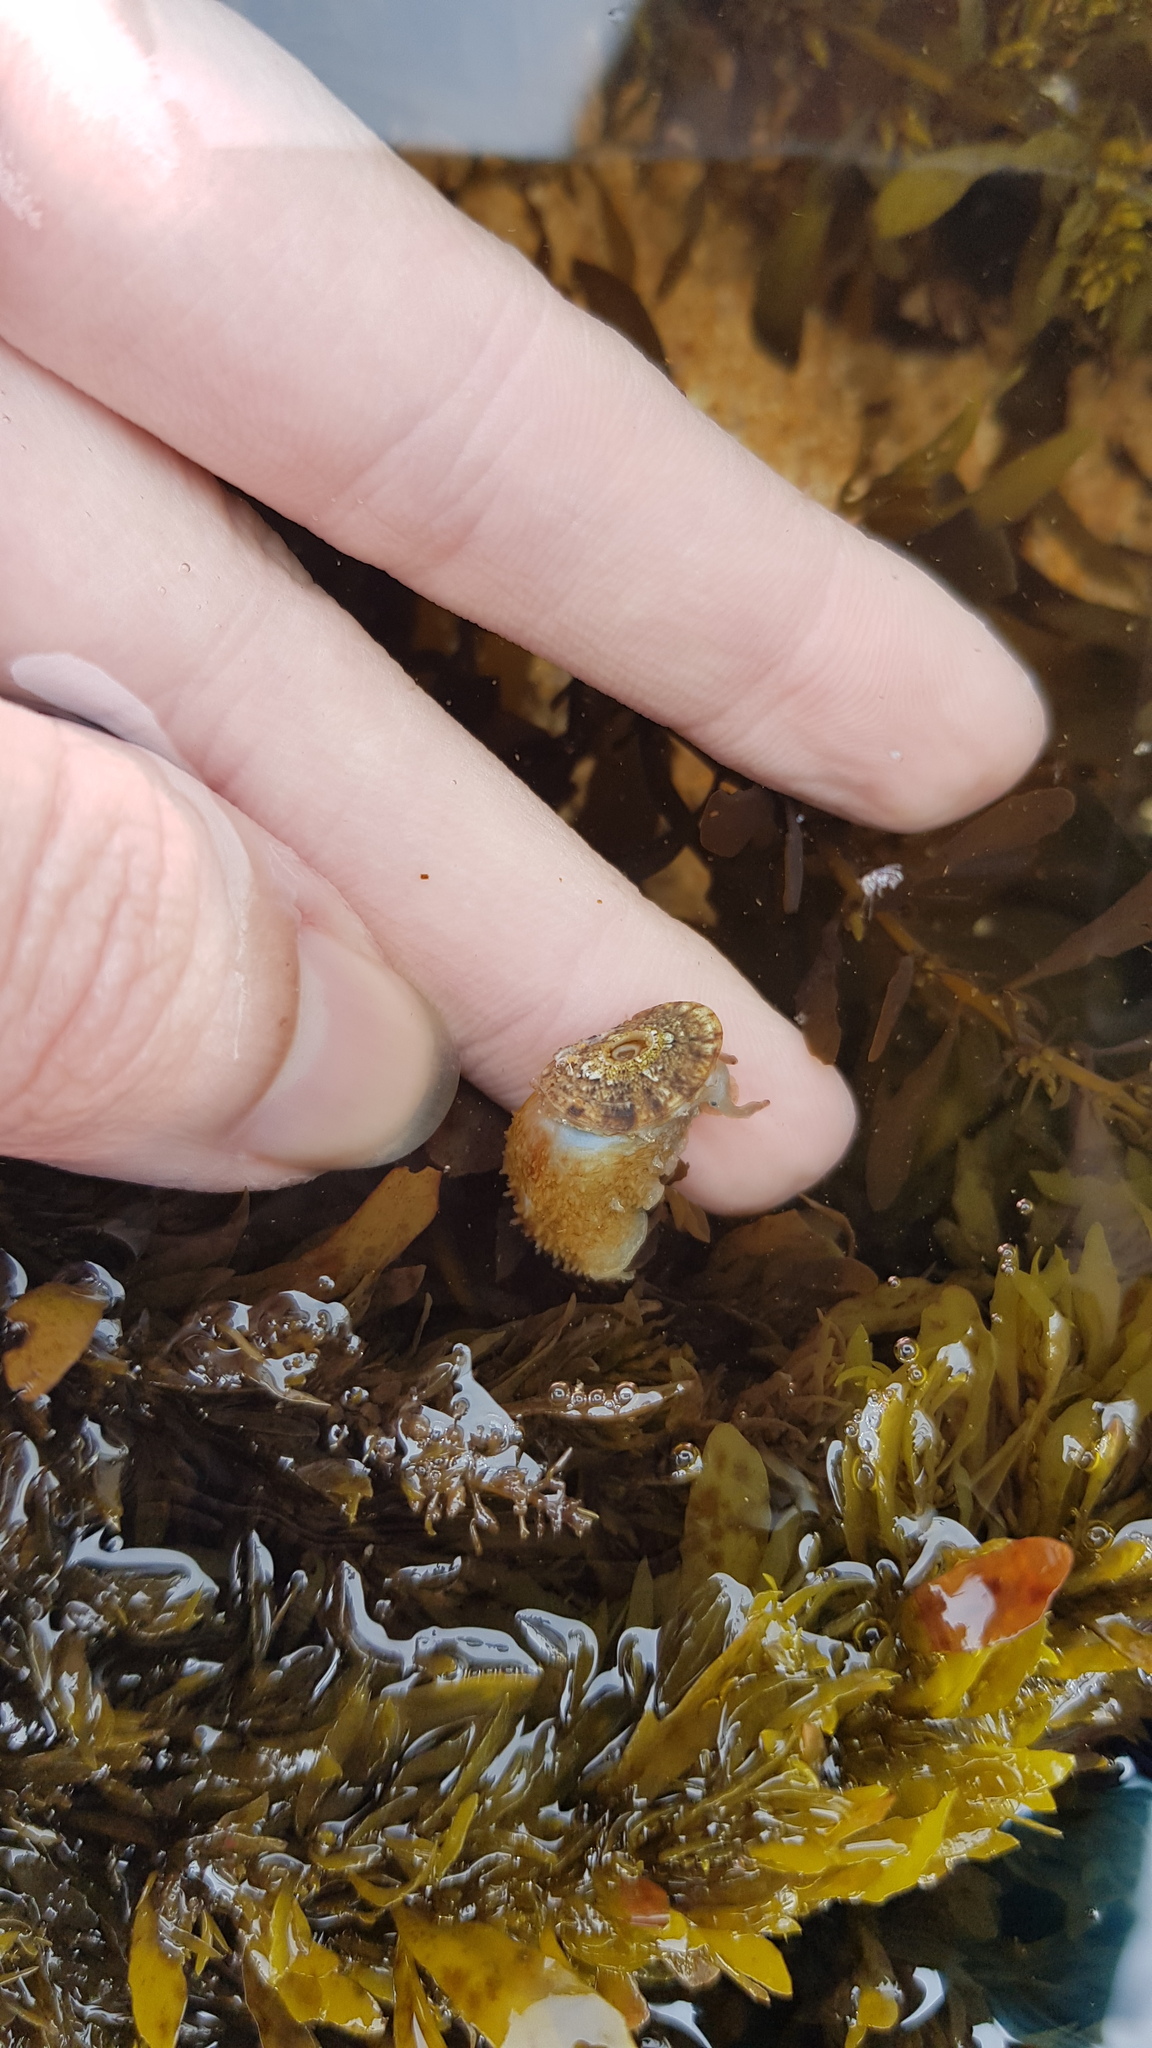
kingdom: Animalia
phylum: Mollusca
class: Gastropoda
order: Lepetellida
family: Fissurellidae
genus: Amblychilepas
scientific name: Amblychilepas nigrita
